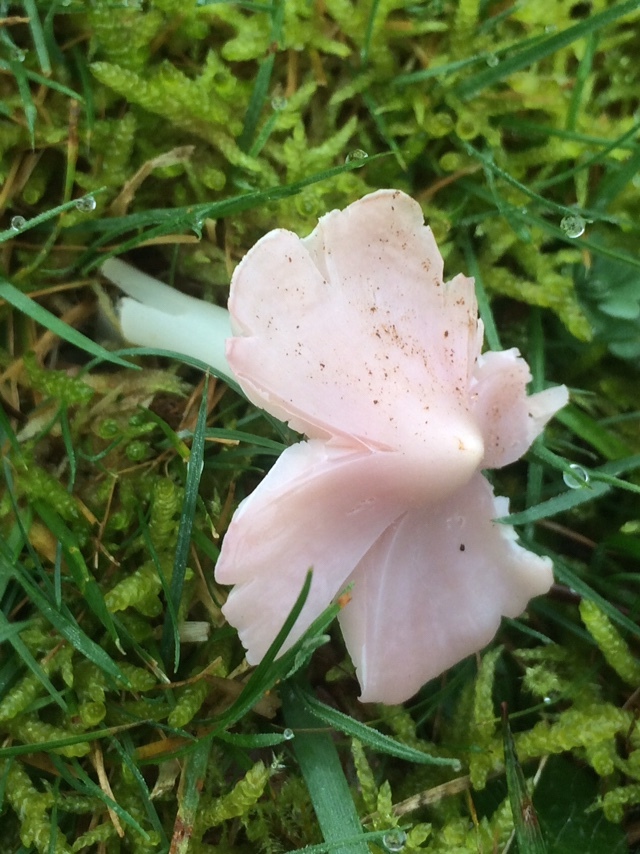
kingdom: Fungi
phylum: Basidiomycota
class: Agaricomycetes
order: Agaricales
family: Hygrophoraceae
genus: Porpolomopsis
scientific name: Porpolomopsis calyptriformis
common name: Pink waxcap
